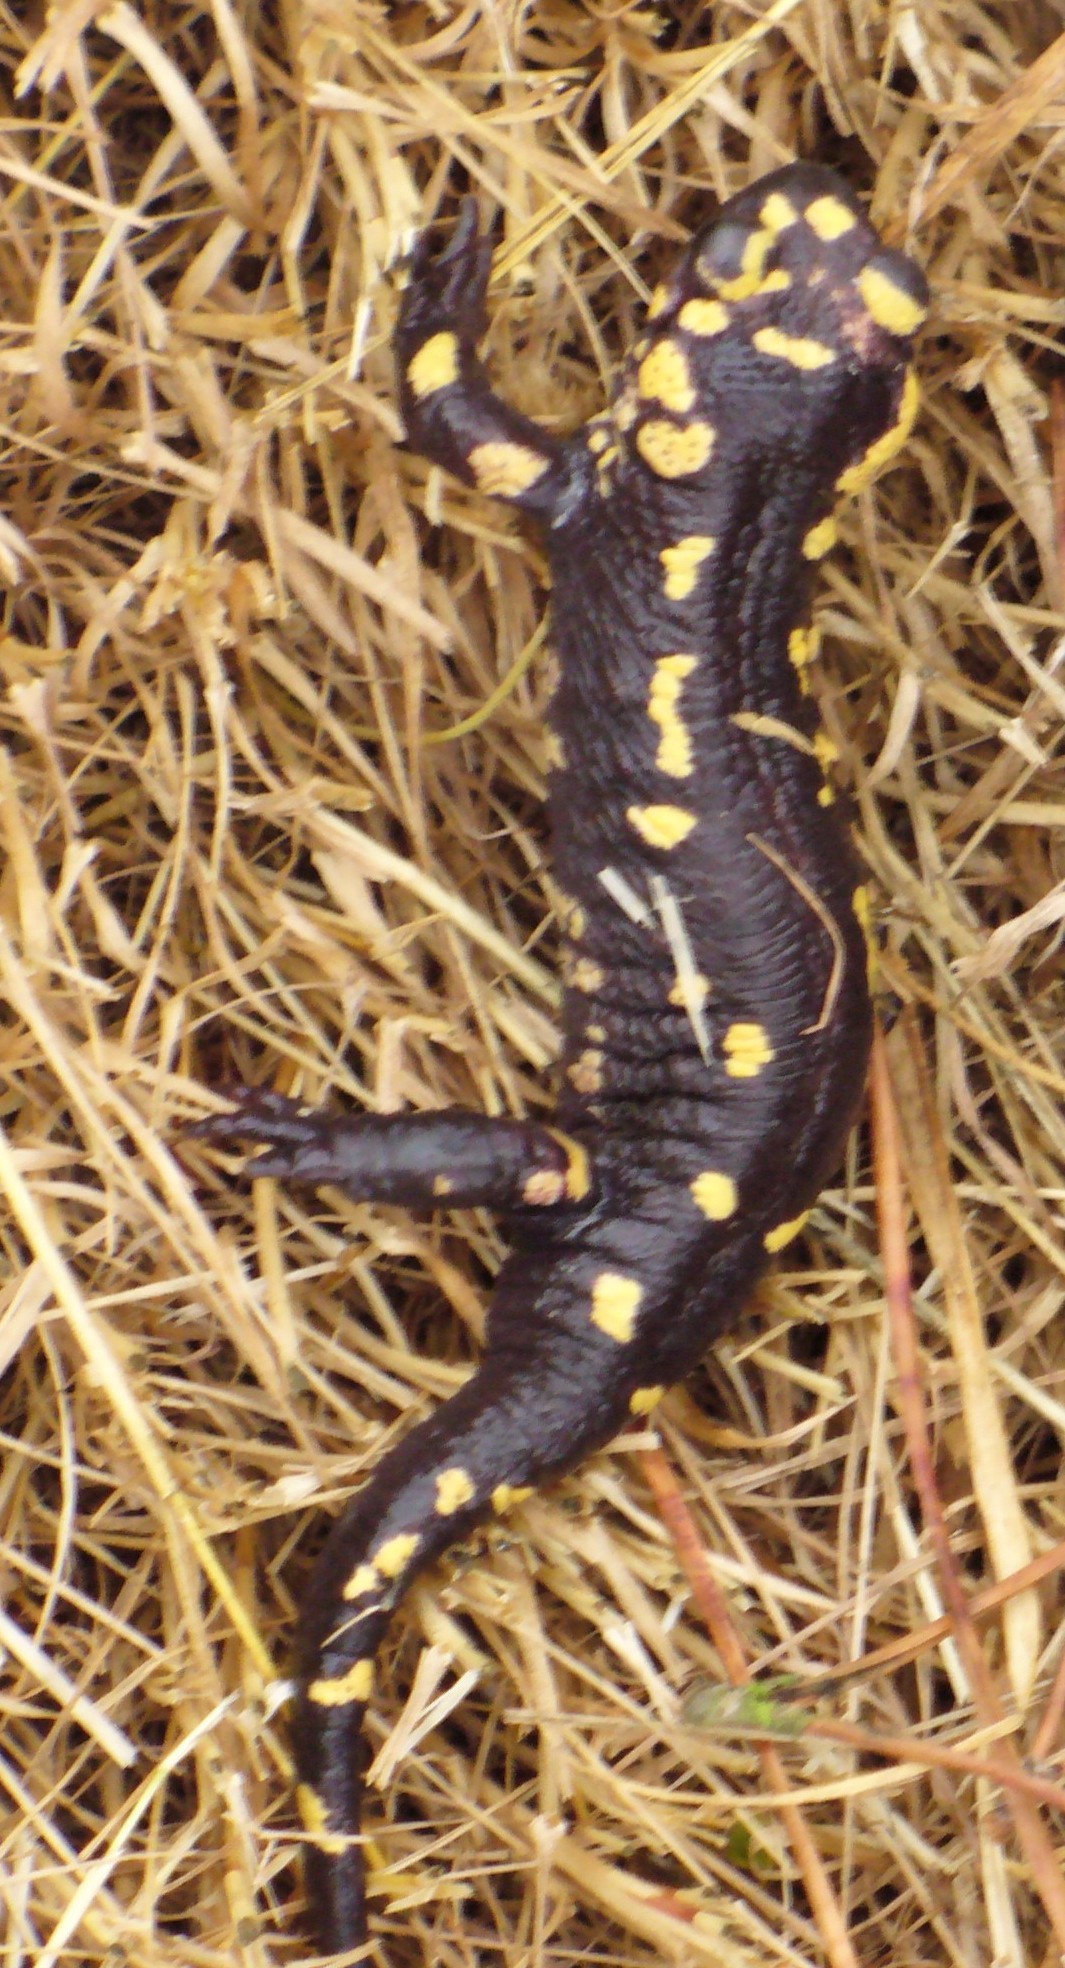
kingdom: Animalia
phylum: Chordata
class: Amphibia
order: Caudata
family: Salamandridae
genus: Salamandra
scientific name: Salamandra salamandra
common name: Fire salamander
